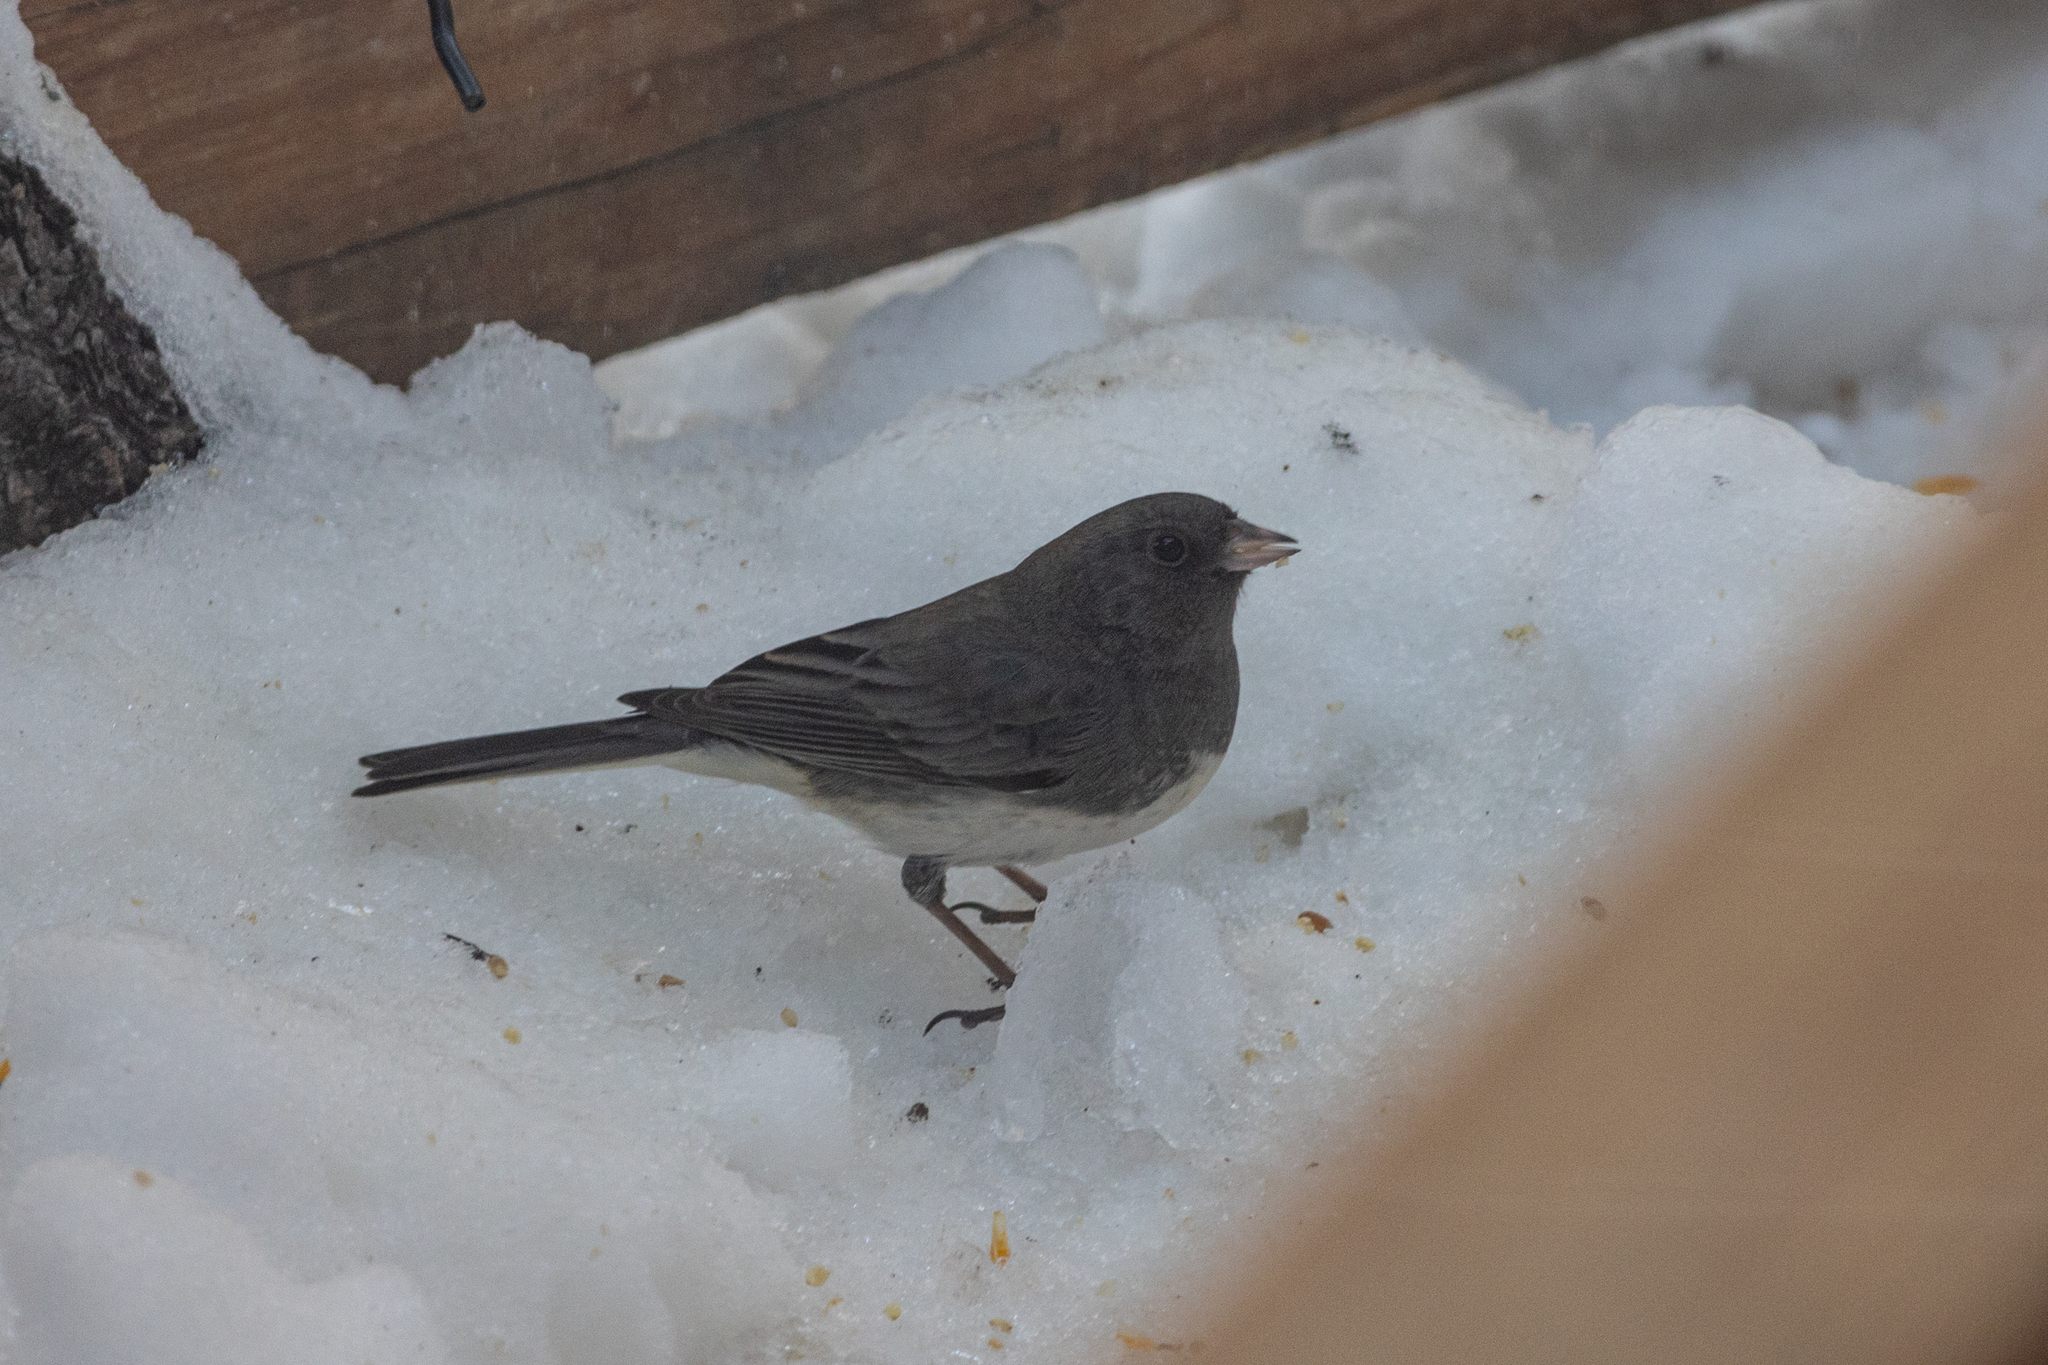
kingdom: Animalia
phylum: Chordata
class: Aves
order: Passeriformes
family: Passerellidae
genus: Junco
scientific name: Junco hyemalis
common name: Dark-eyed junco
